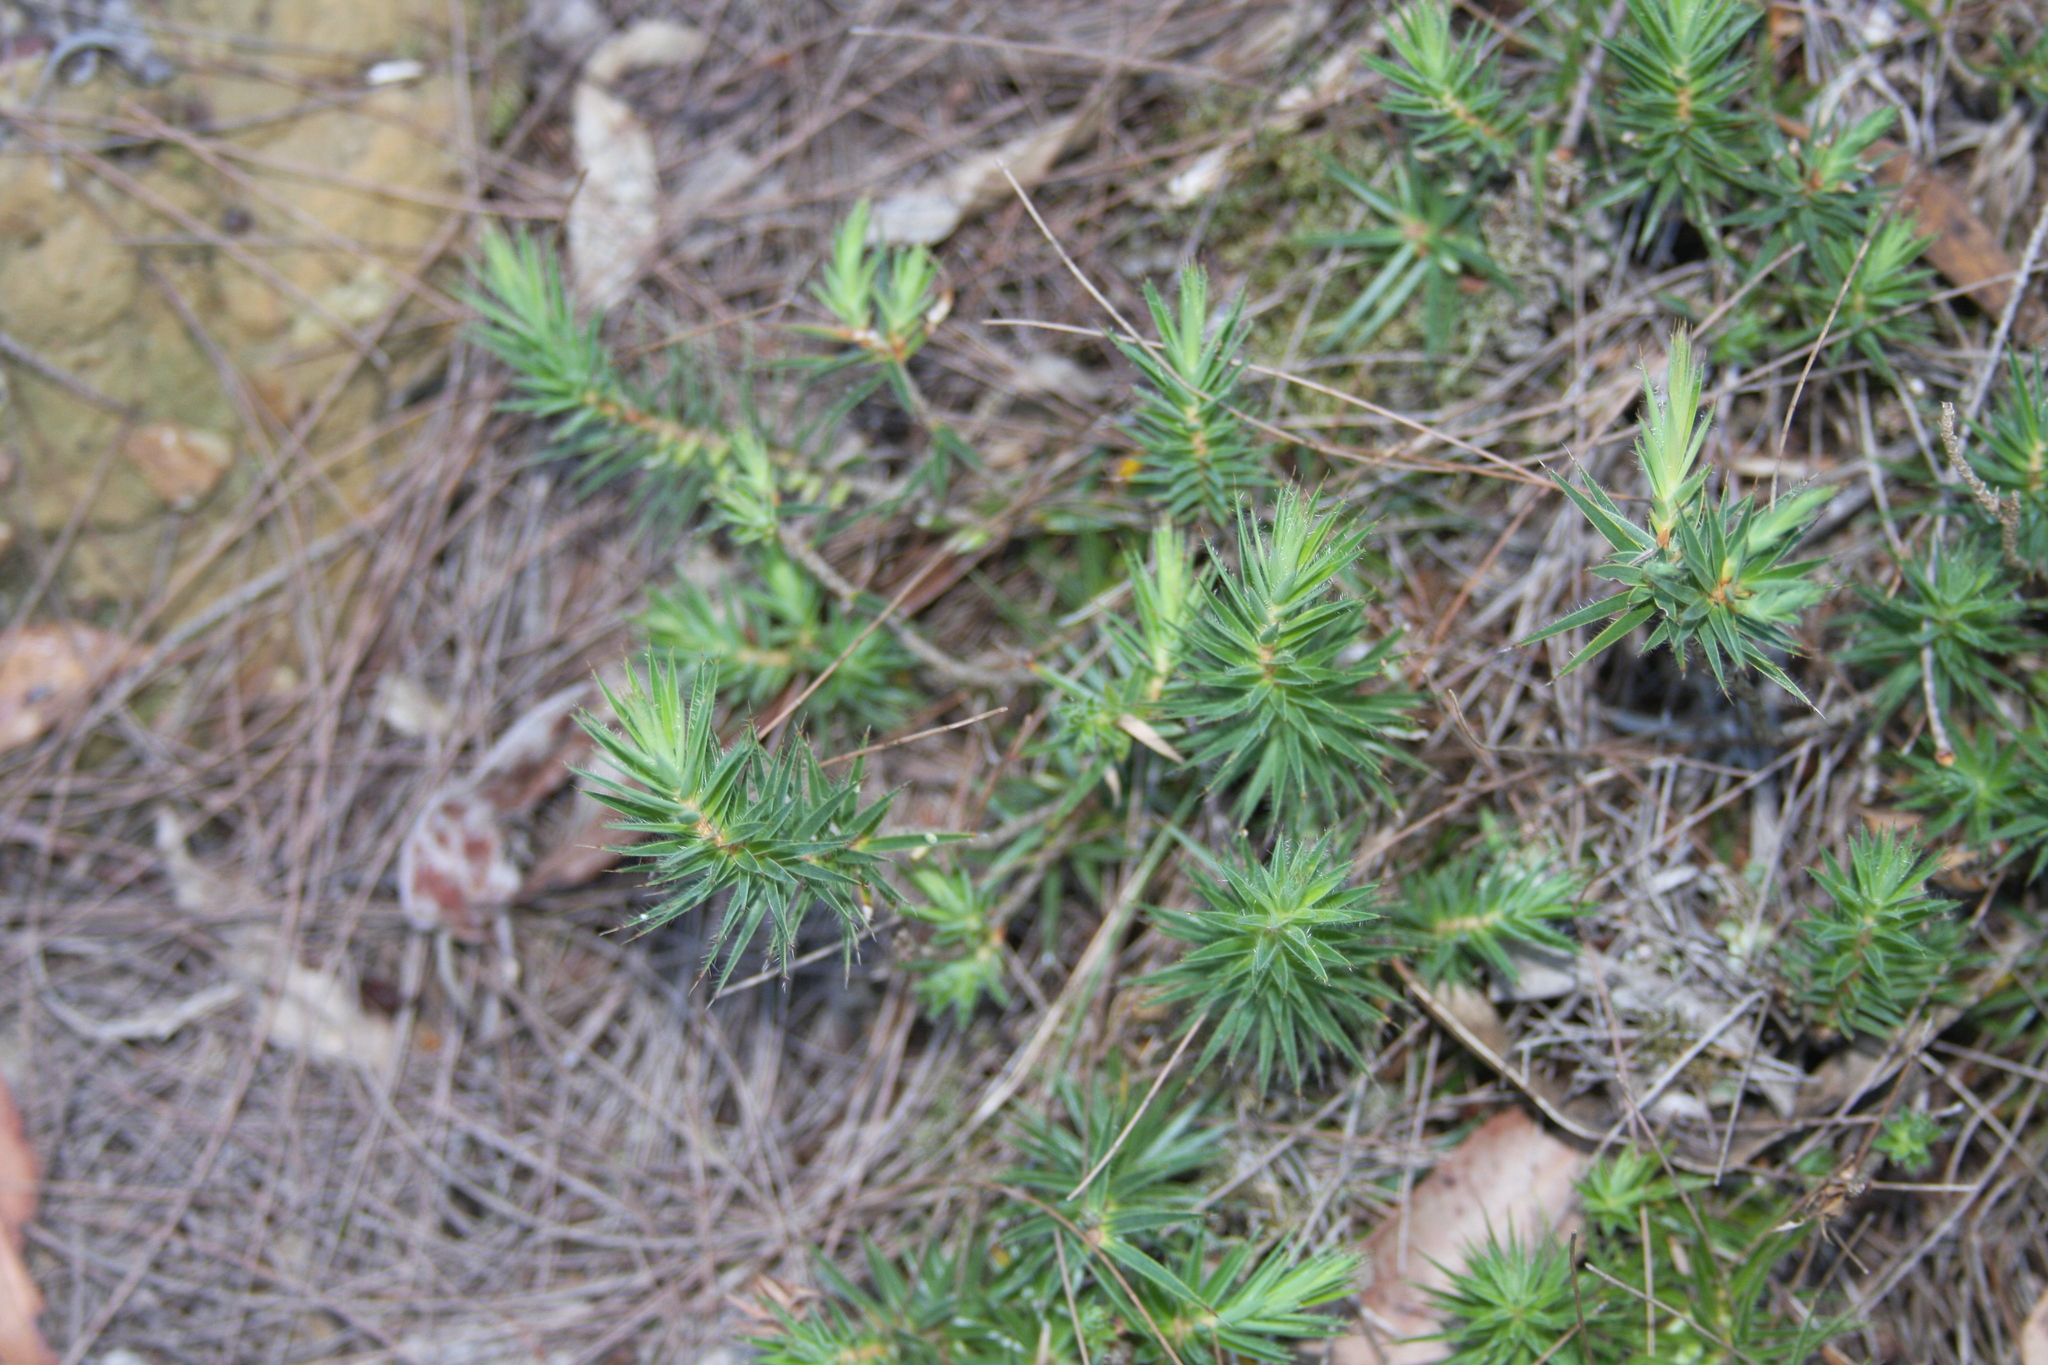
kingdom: Plantae
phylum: Tracheophyta
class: Magnoliopsida
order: Ericales
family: Ericaceae
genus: Melichrus
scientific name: Melichrus procumbens
